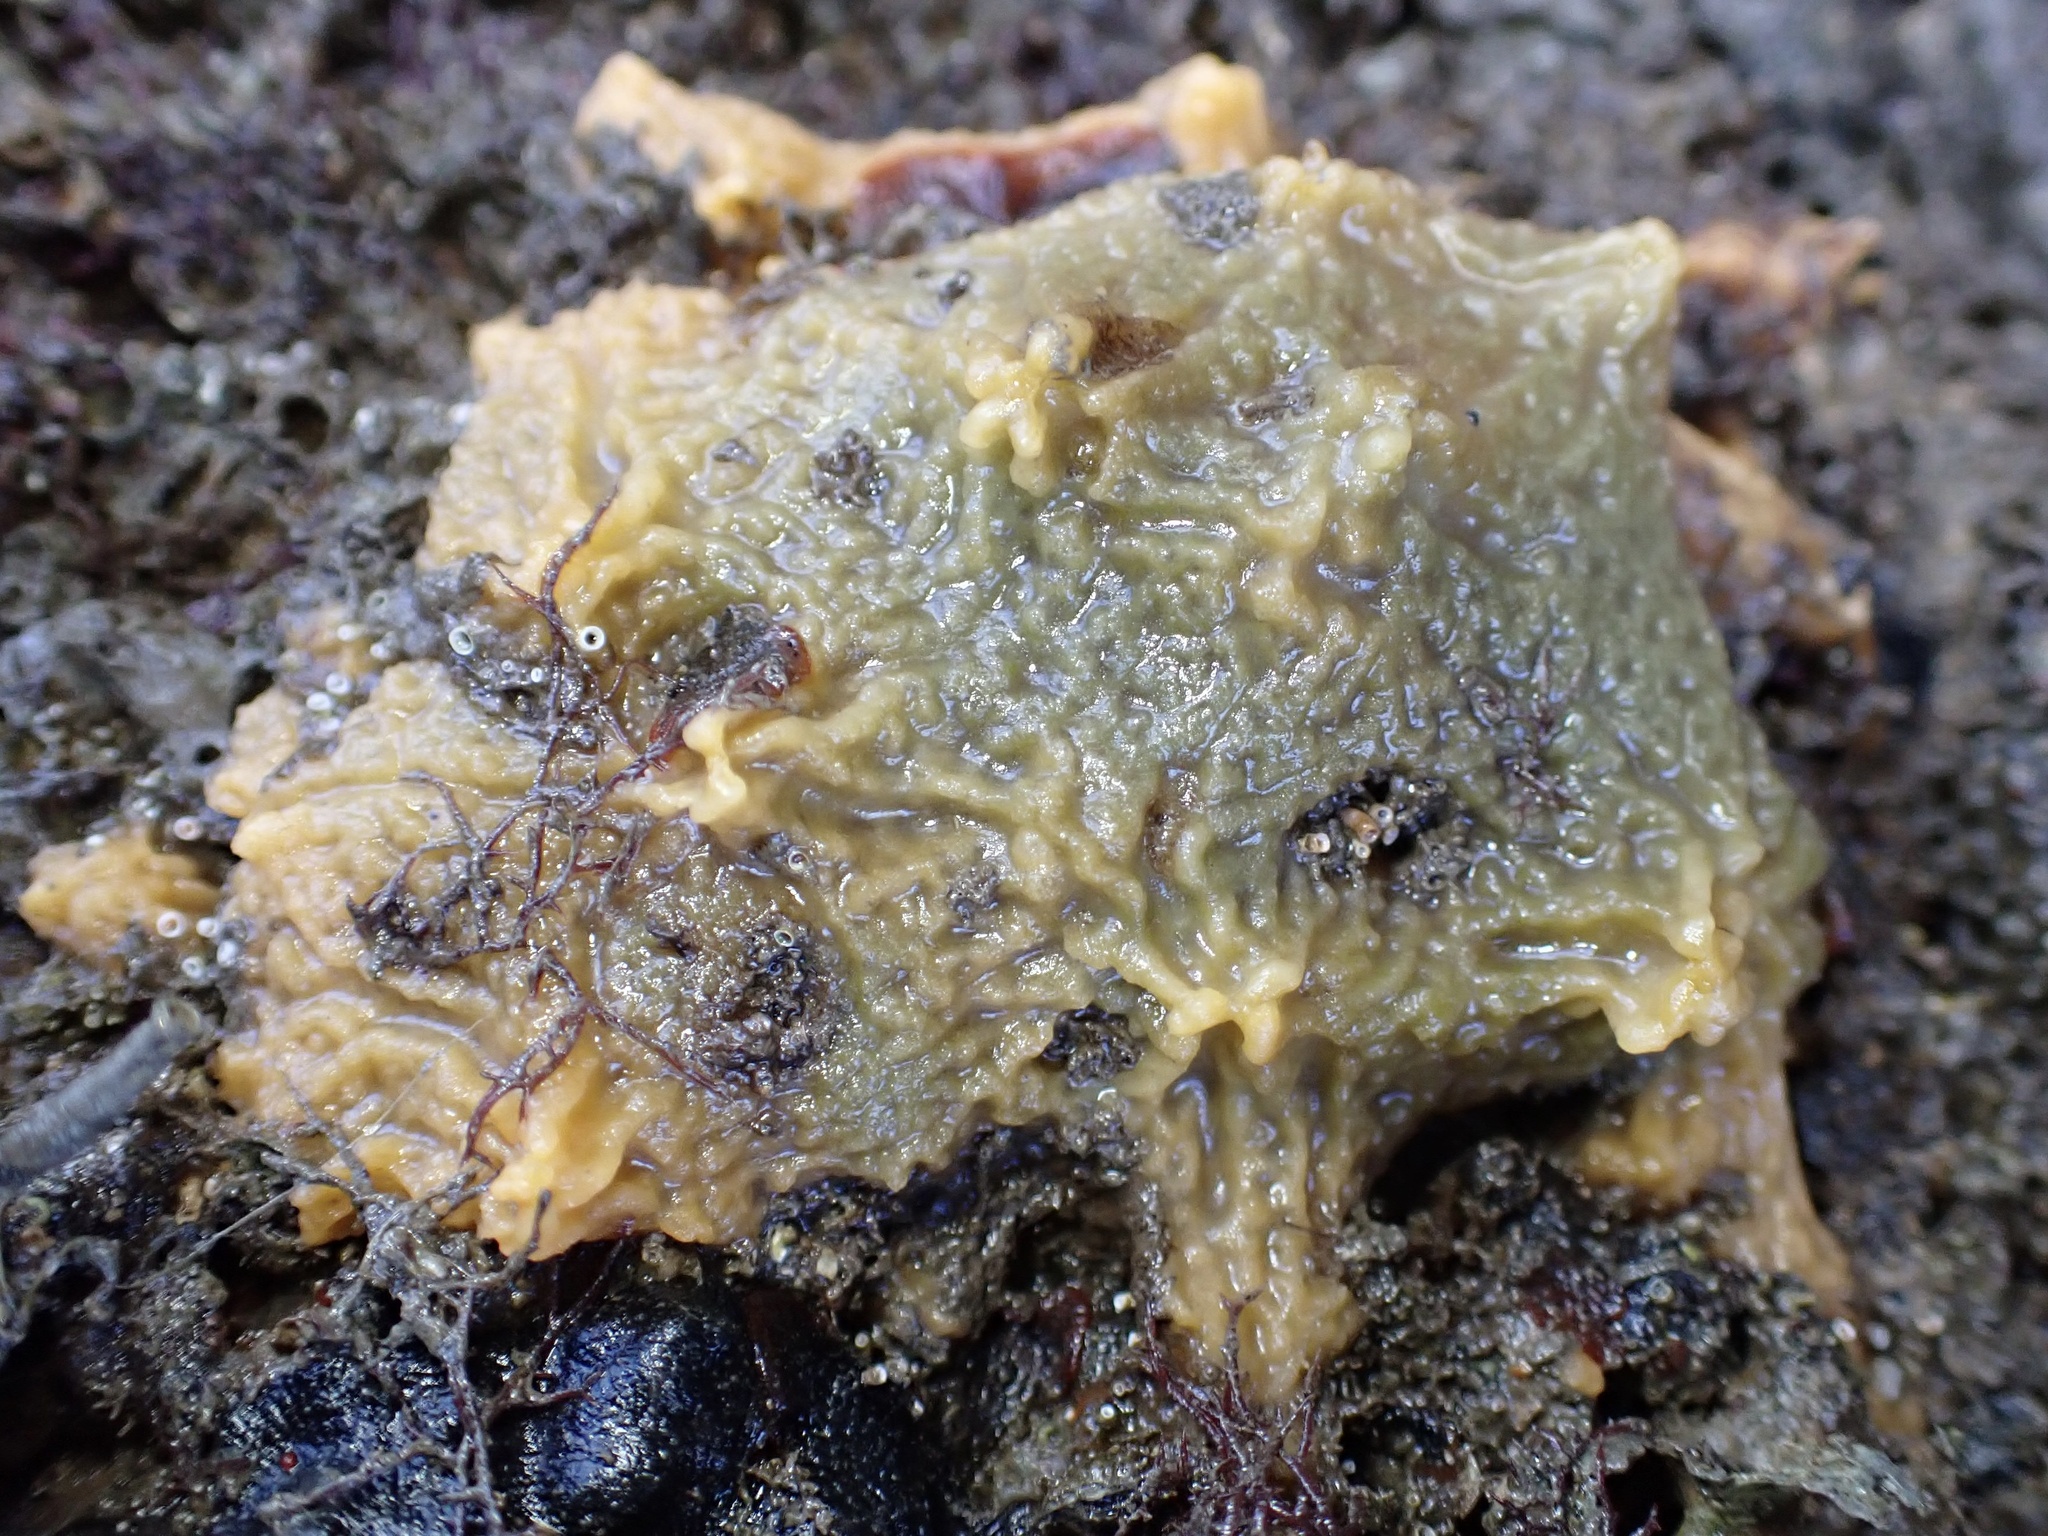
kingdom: Animalia
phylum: Porifera
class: Demospongiae
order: Suberitida
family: Halichondriidae
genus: Hymeniacidon
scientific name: Hymeniacidon perlevis
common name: Crumb-of-bread sponge
